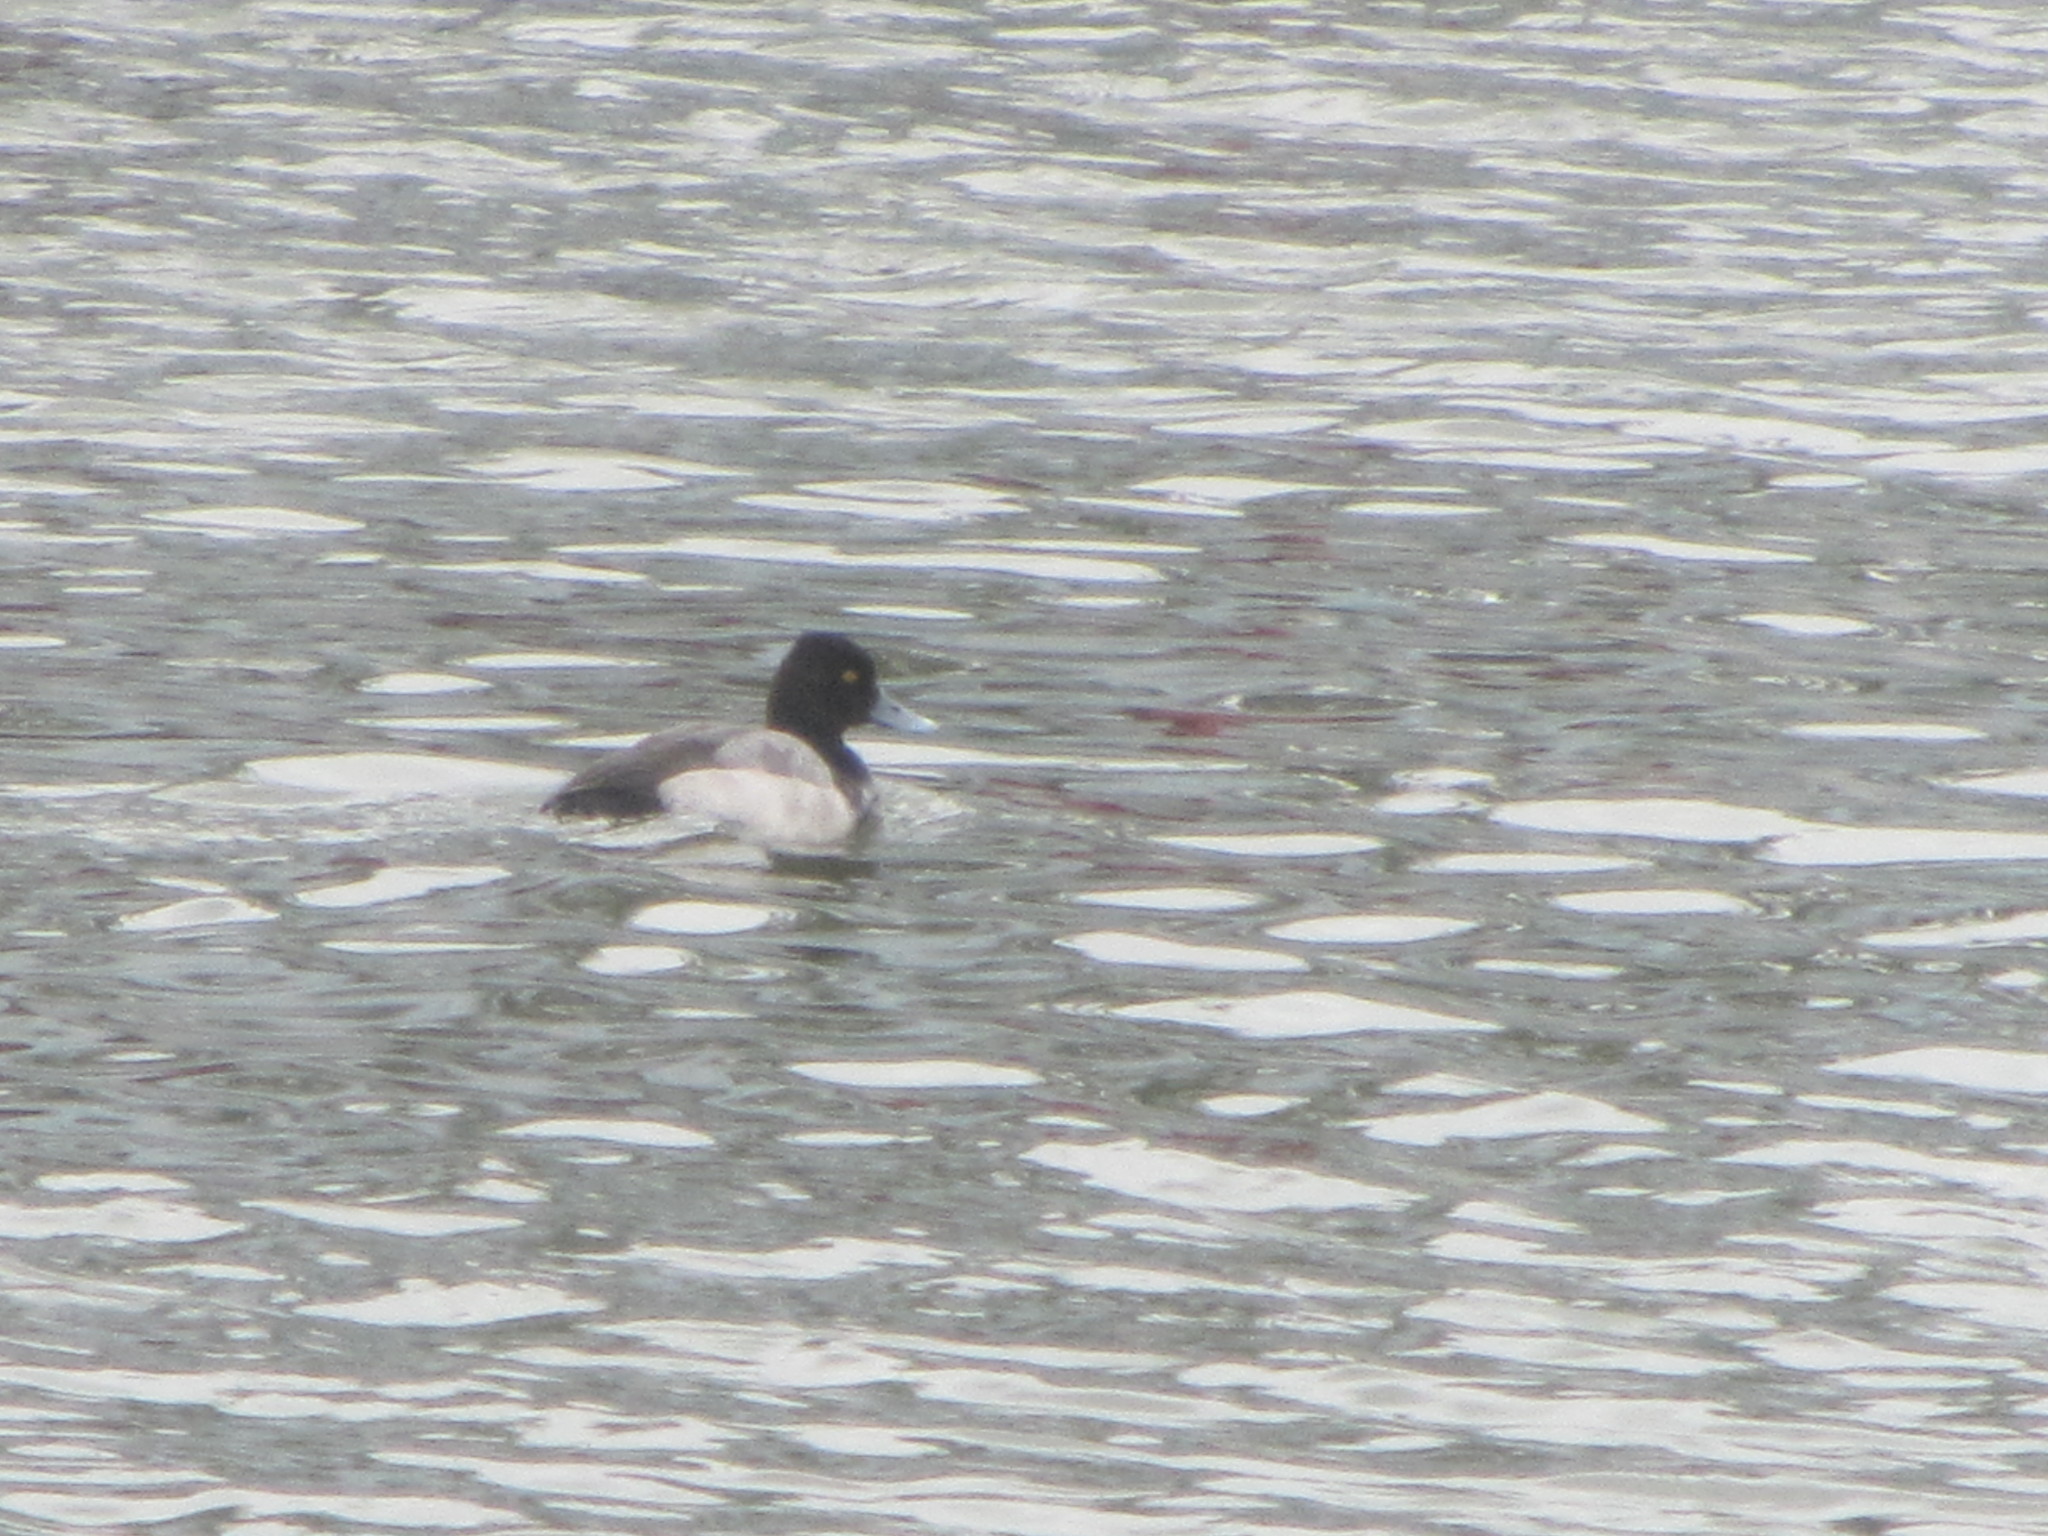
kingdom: Animalia
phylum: Chordata
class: Aves
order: Anseriformes
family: Anatidae
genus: Aythya
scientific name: Aythya affinis
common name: Lesser scaup
